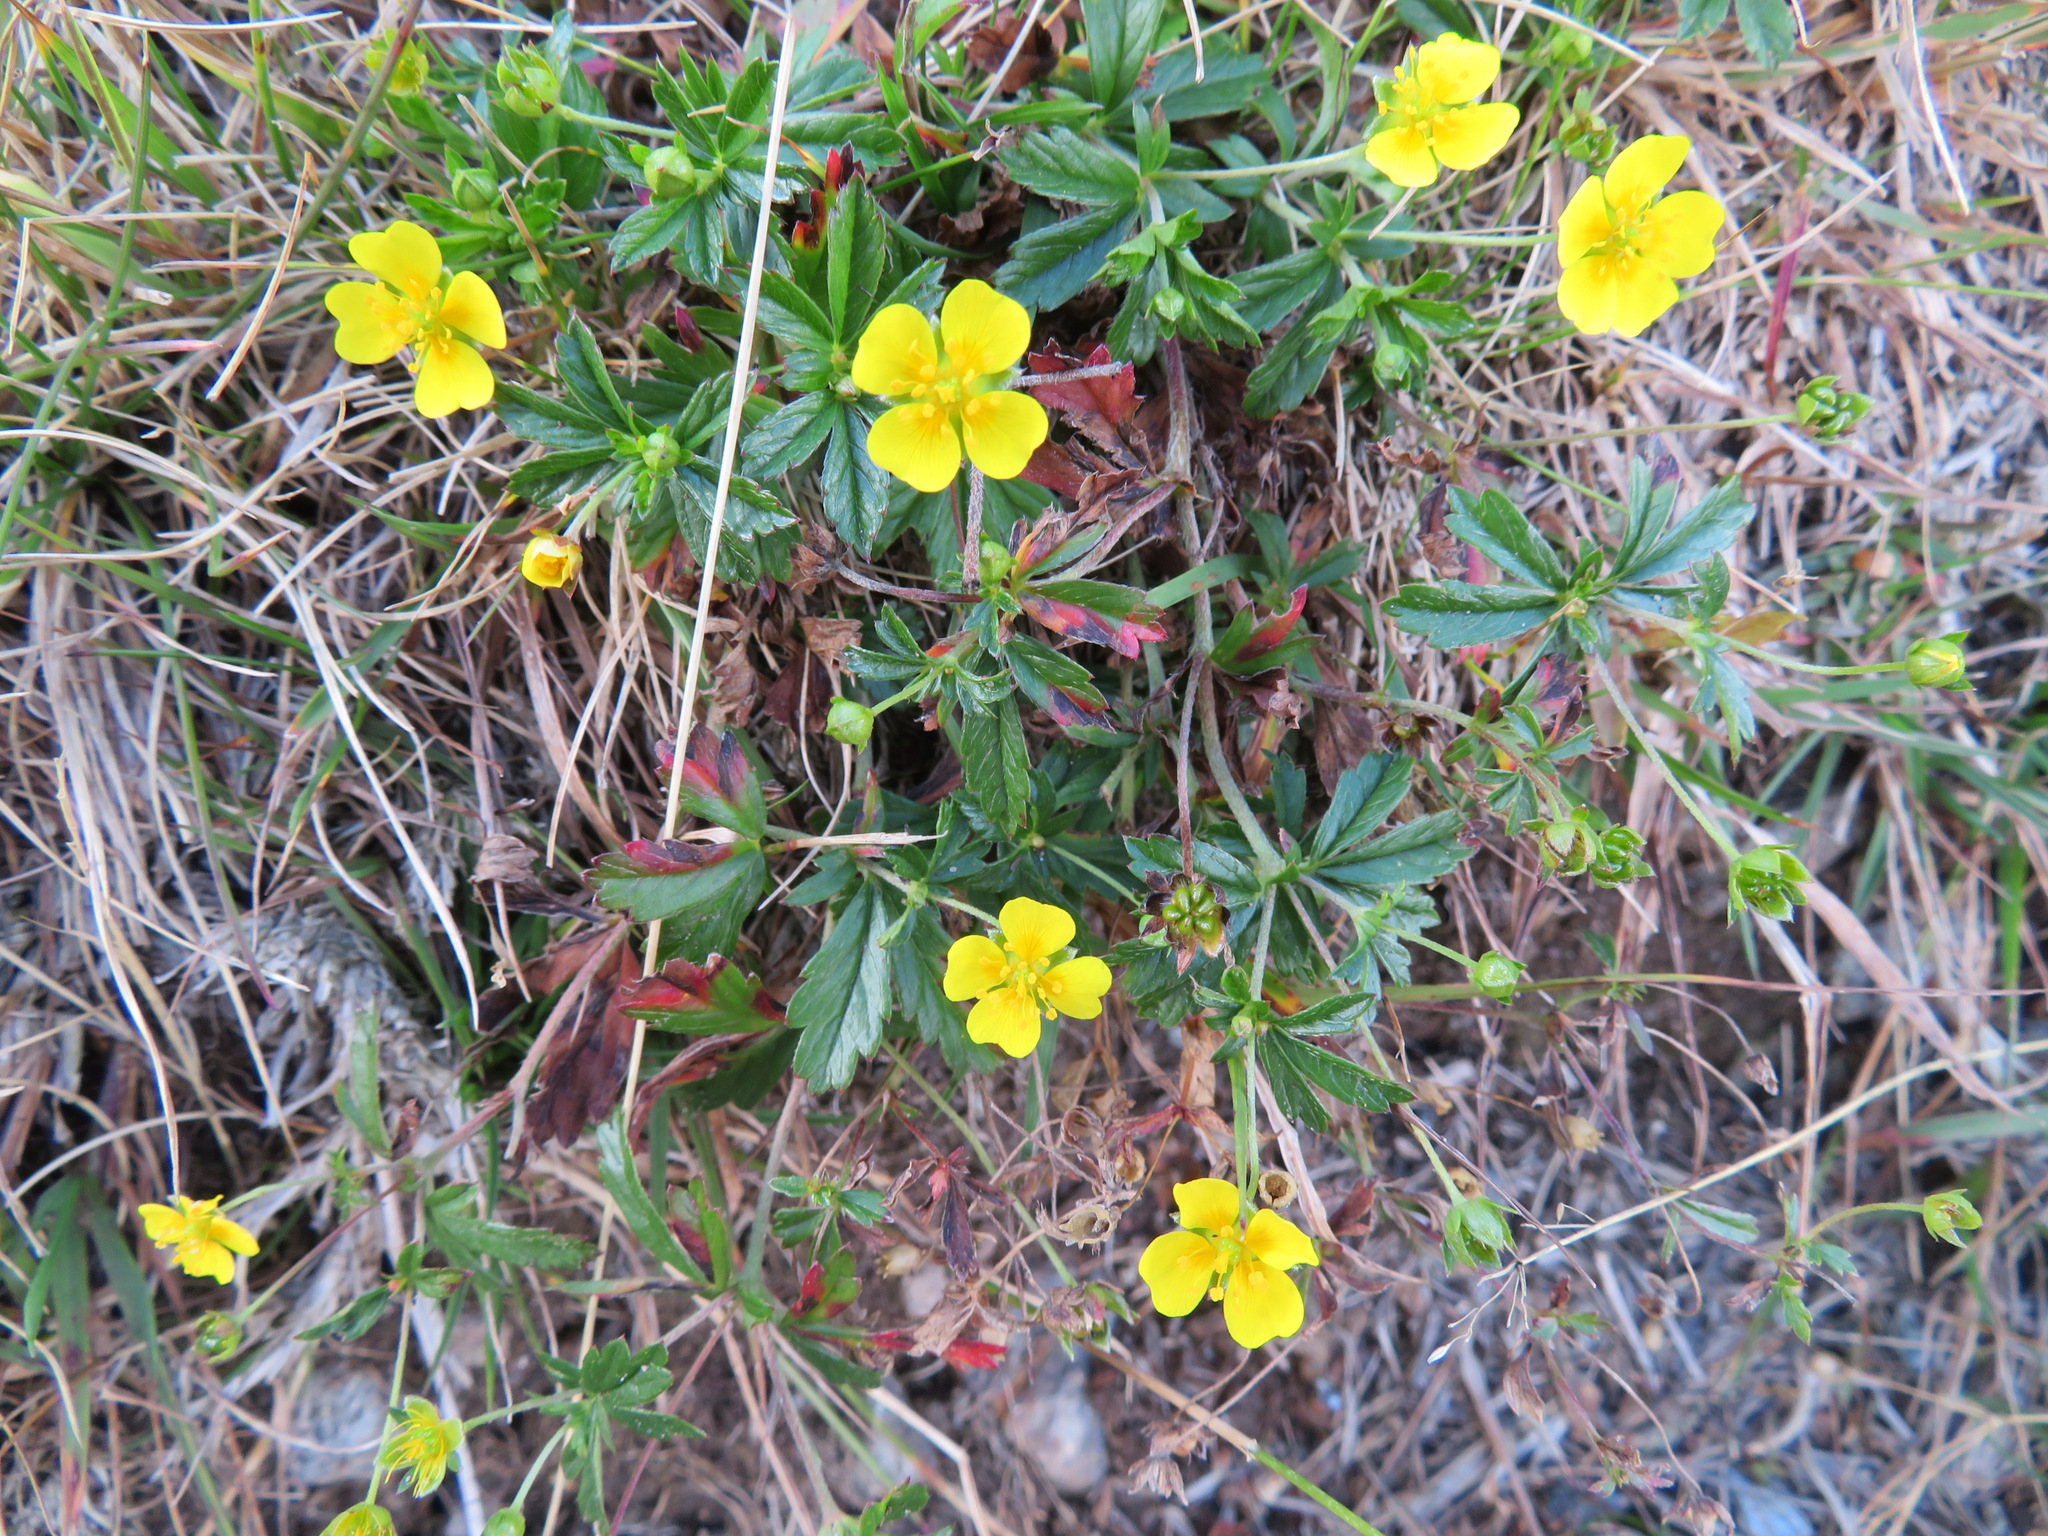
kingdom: Plantae
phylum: Tracheophyta
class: Magnoliopsida
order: Rosales
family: Rosaceae
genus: Potentilla
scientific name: Potentilla erecta
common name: Tormentil
